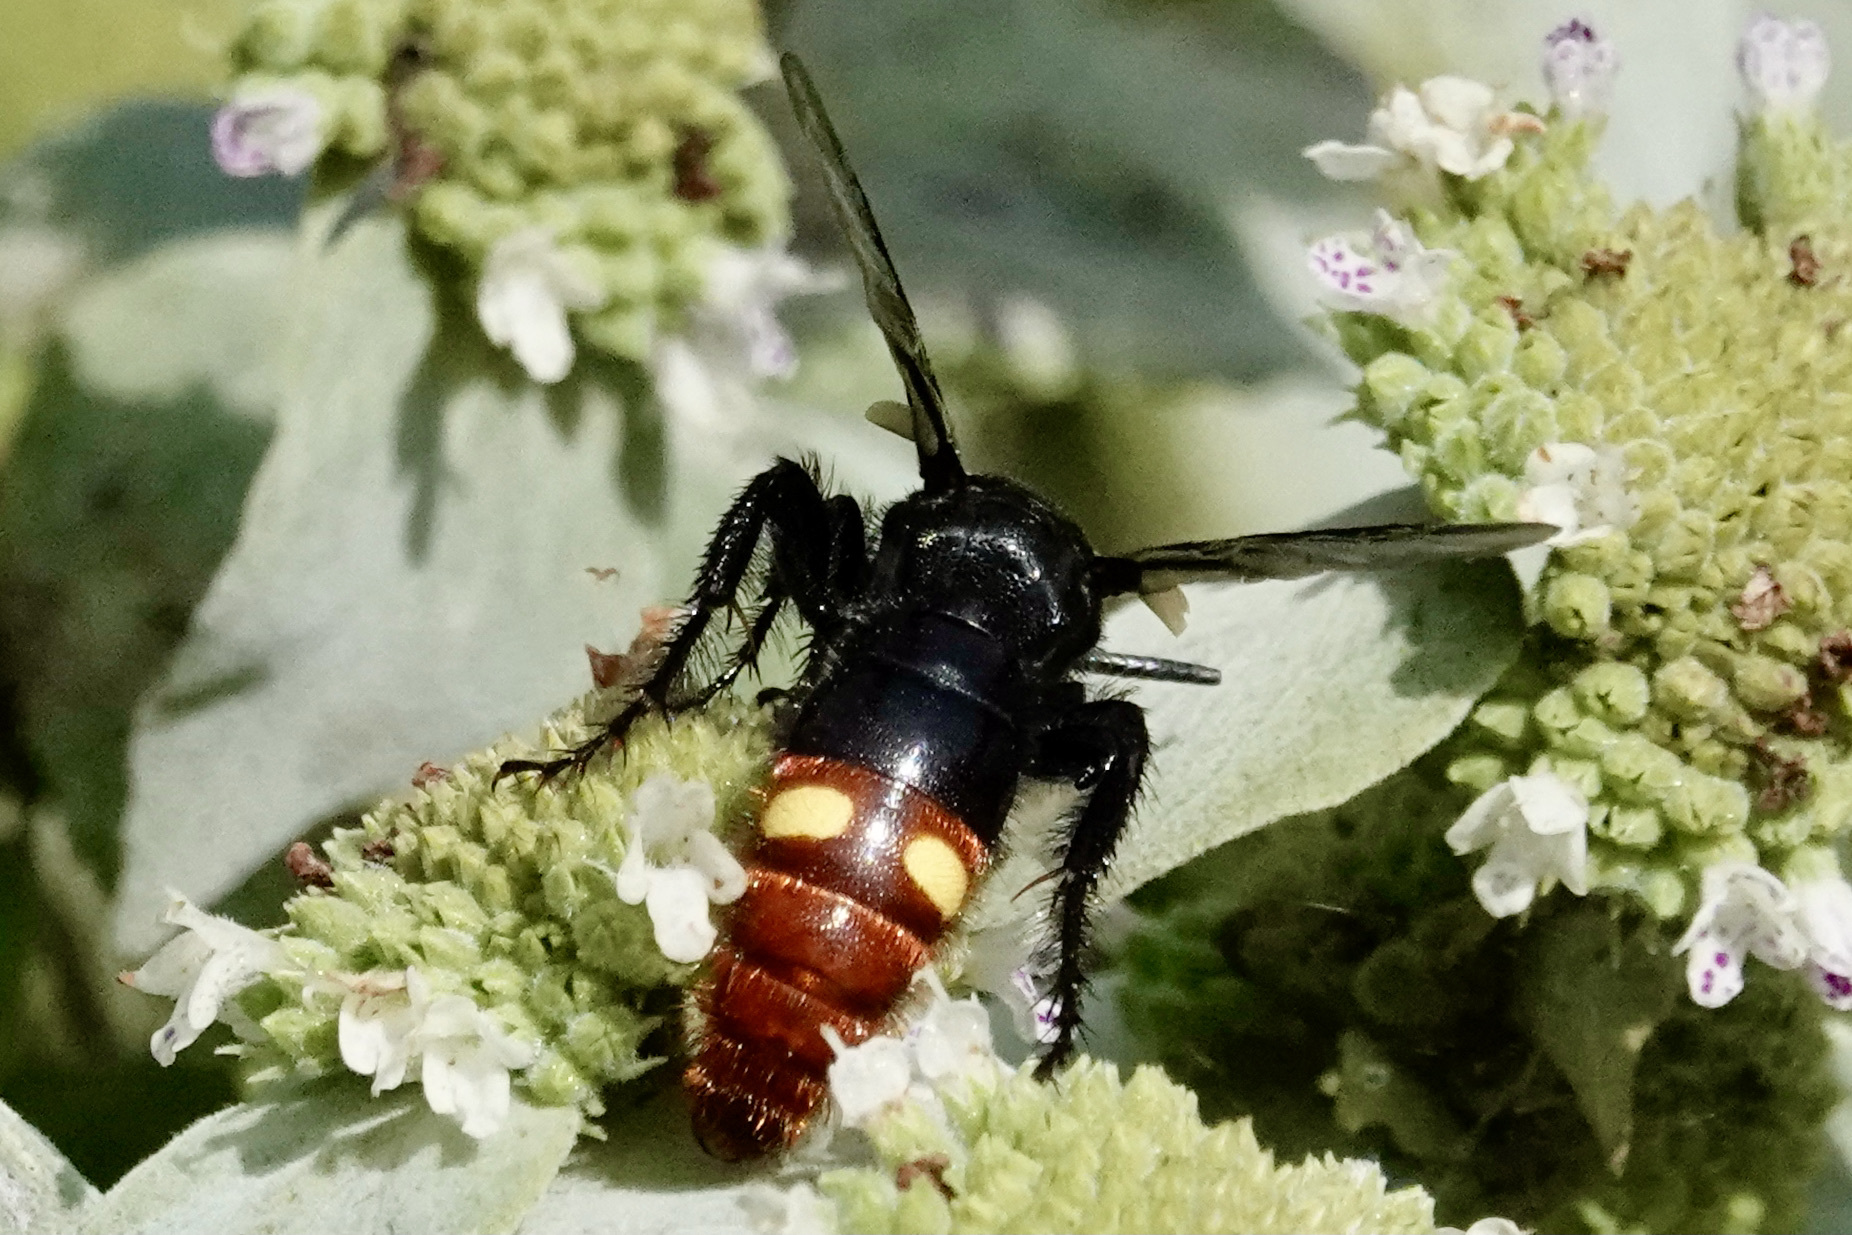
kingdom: Animalia
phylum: Arthropoda
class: Insecta
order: Hymenoptera
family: Scoliidae
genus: Scolia
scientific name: Scolia dubia
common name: Blue-winged scoliid wasp
